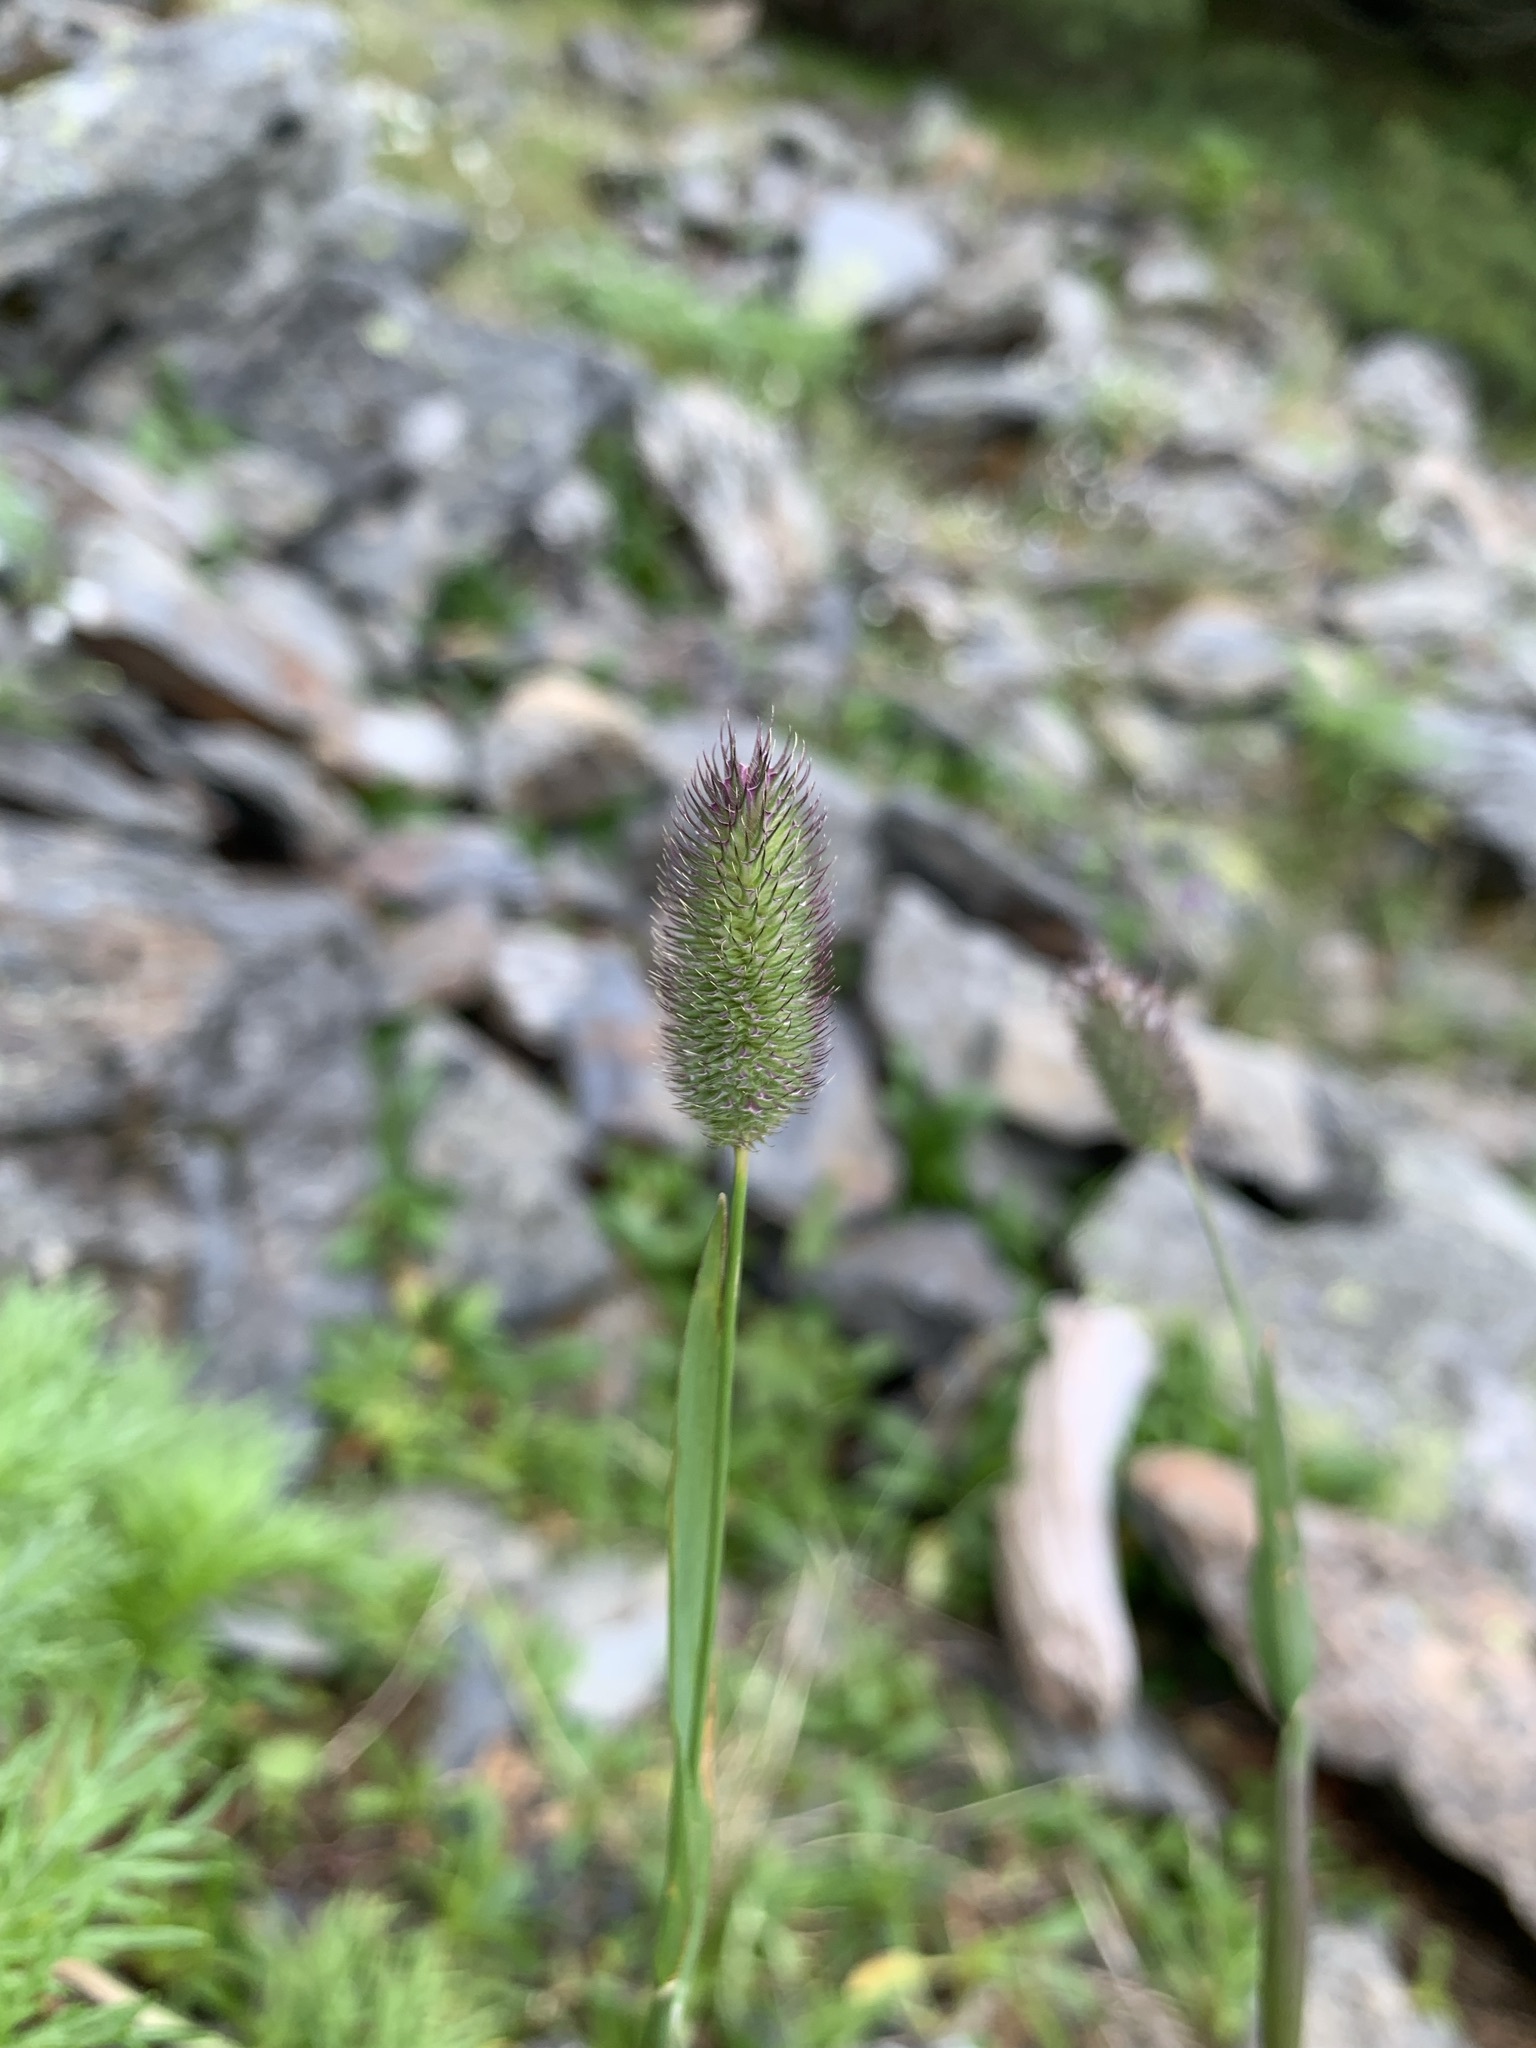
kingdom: Plantae
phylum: Tracheophyta
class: Liliopsida
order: Poales
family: Poaceae
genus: Phleum
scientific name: Phleum alpinum
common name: Alpine cat's-tail
